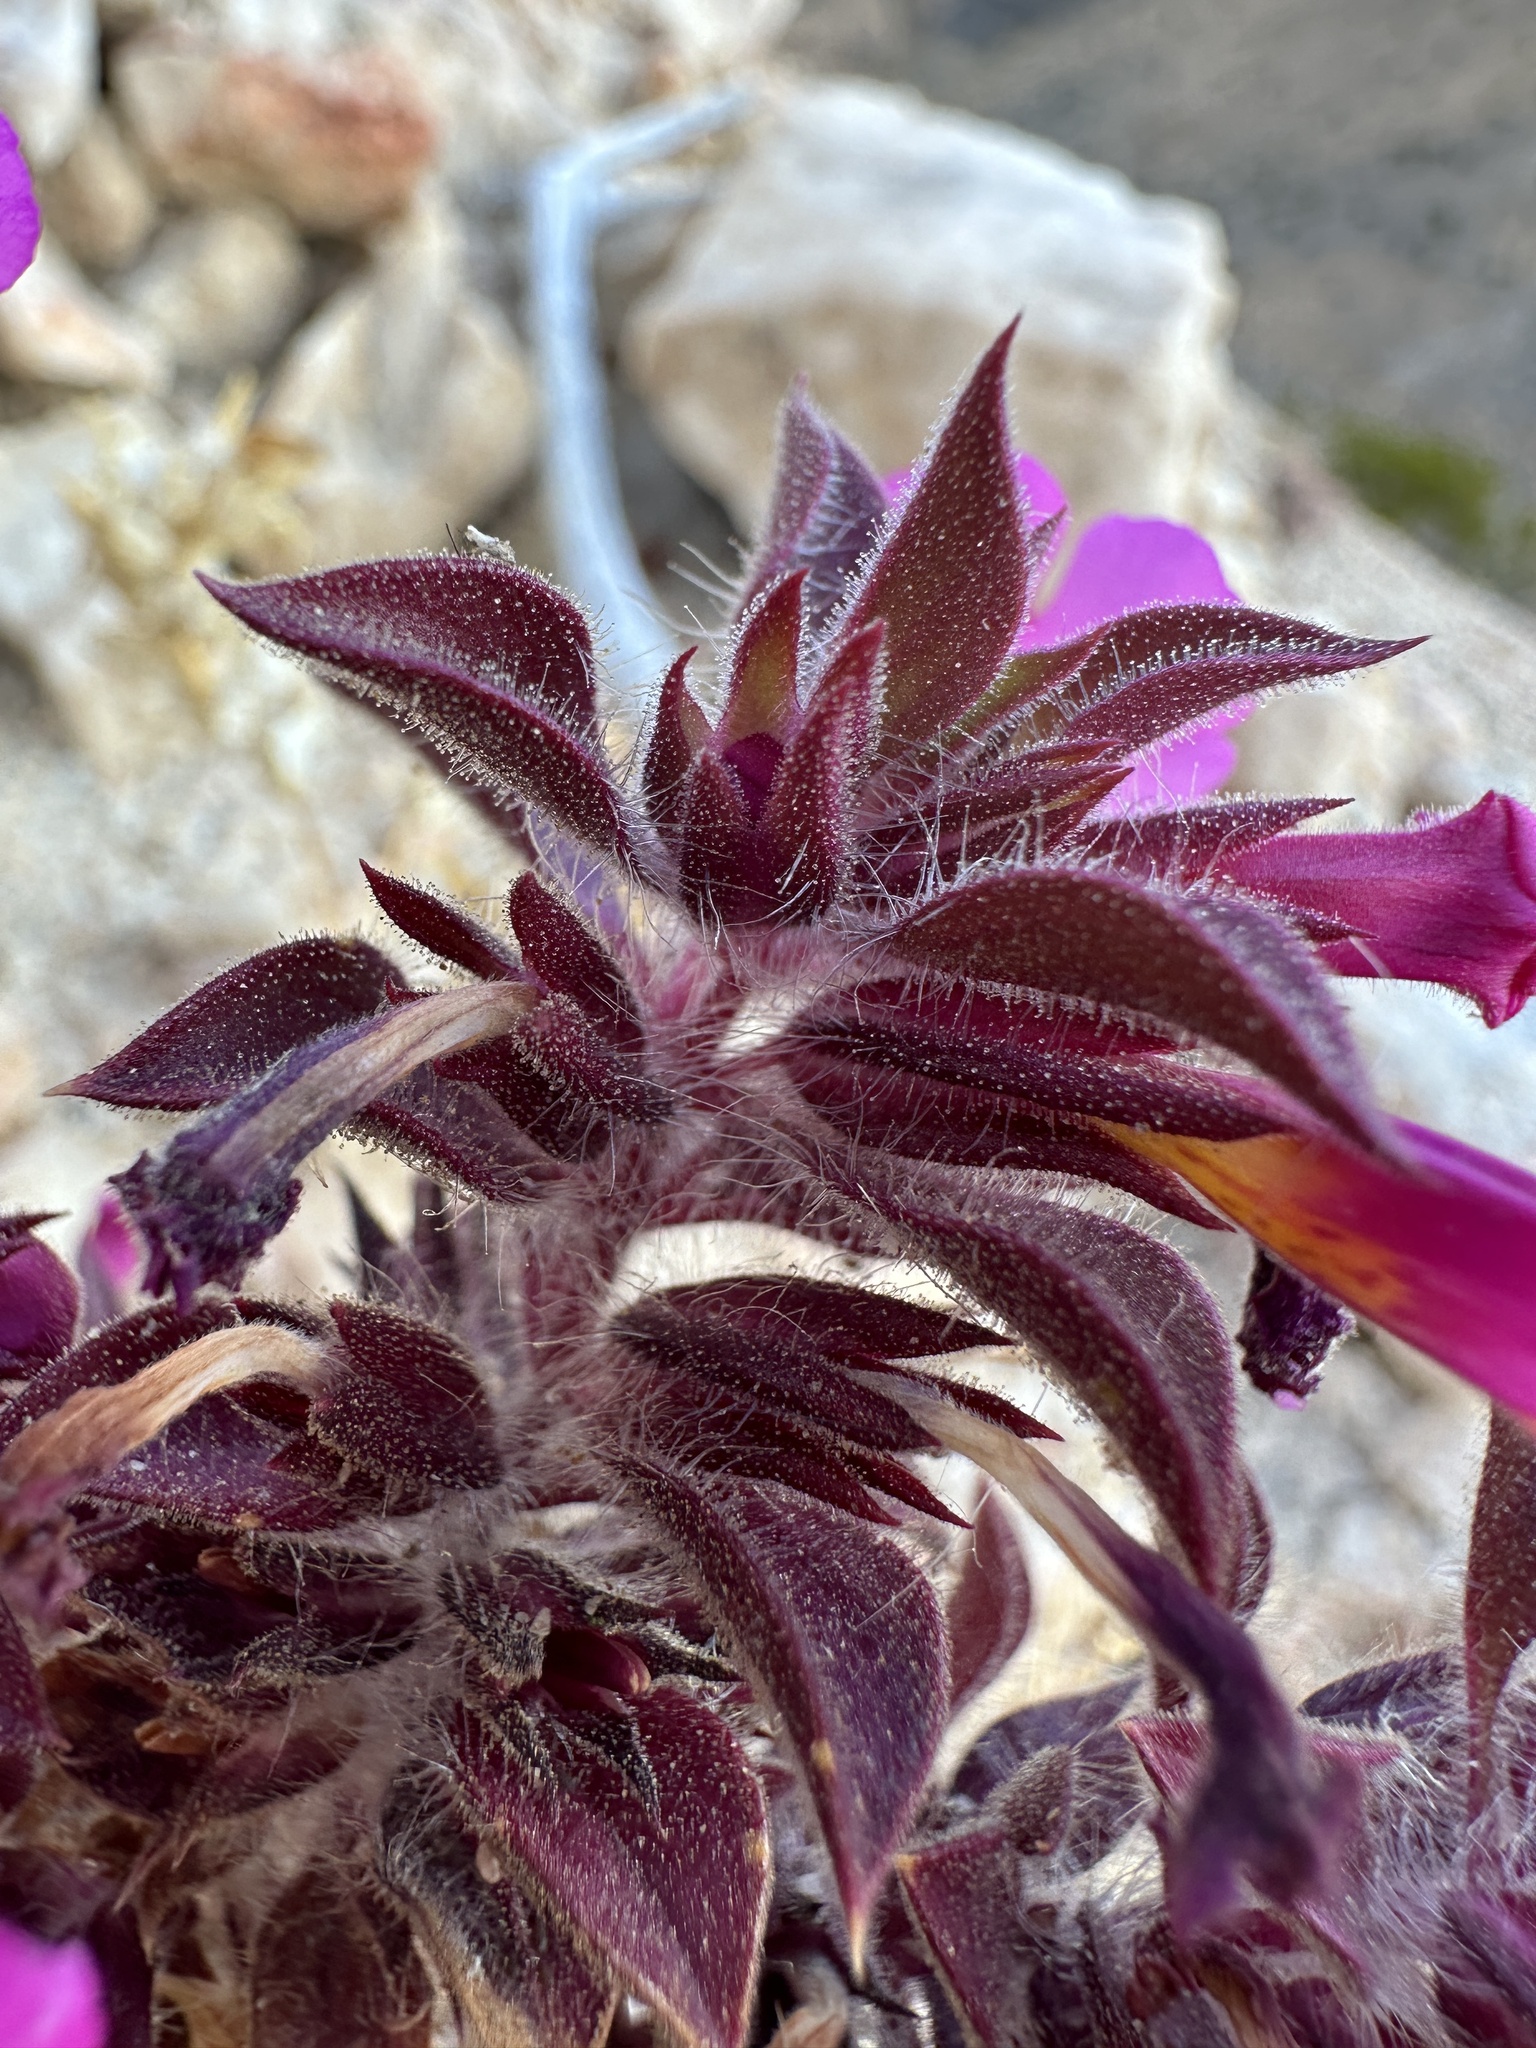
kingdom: Plantae
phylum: Tracheophyta
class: Magnoliopsida
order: Lamiales
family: Phrymaceae
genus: Diplacus
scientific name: Diplacus bigelovii
